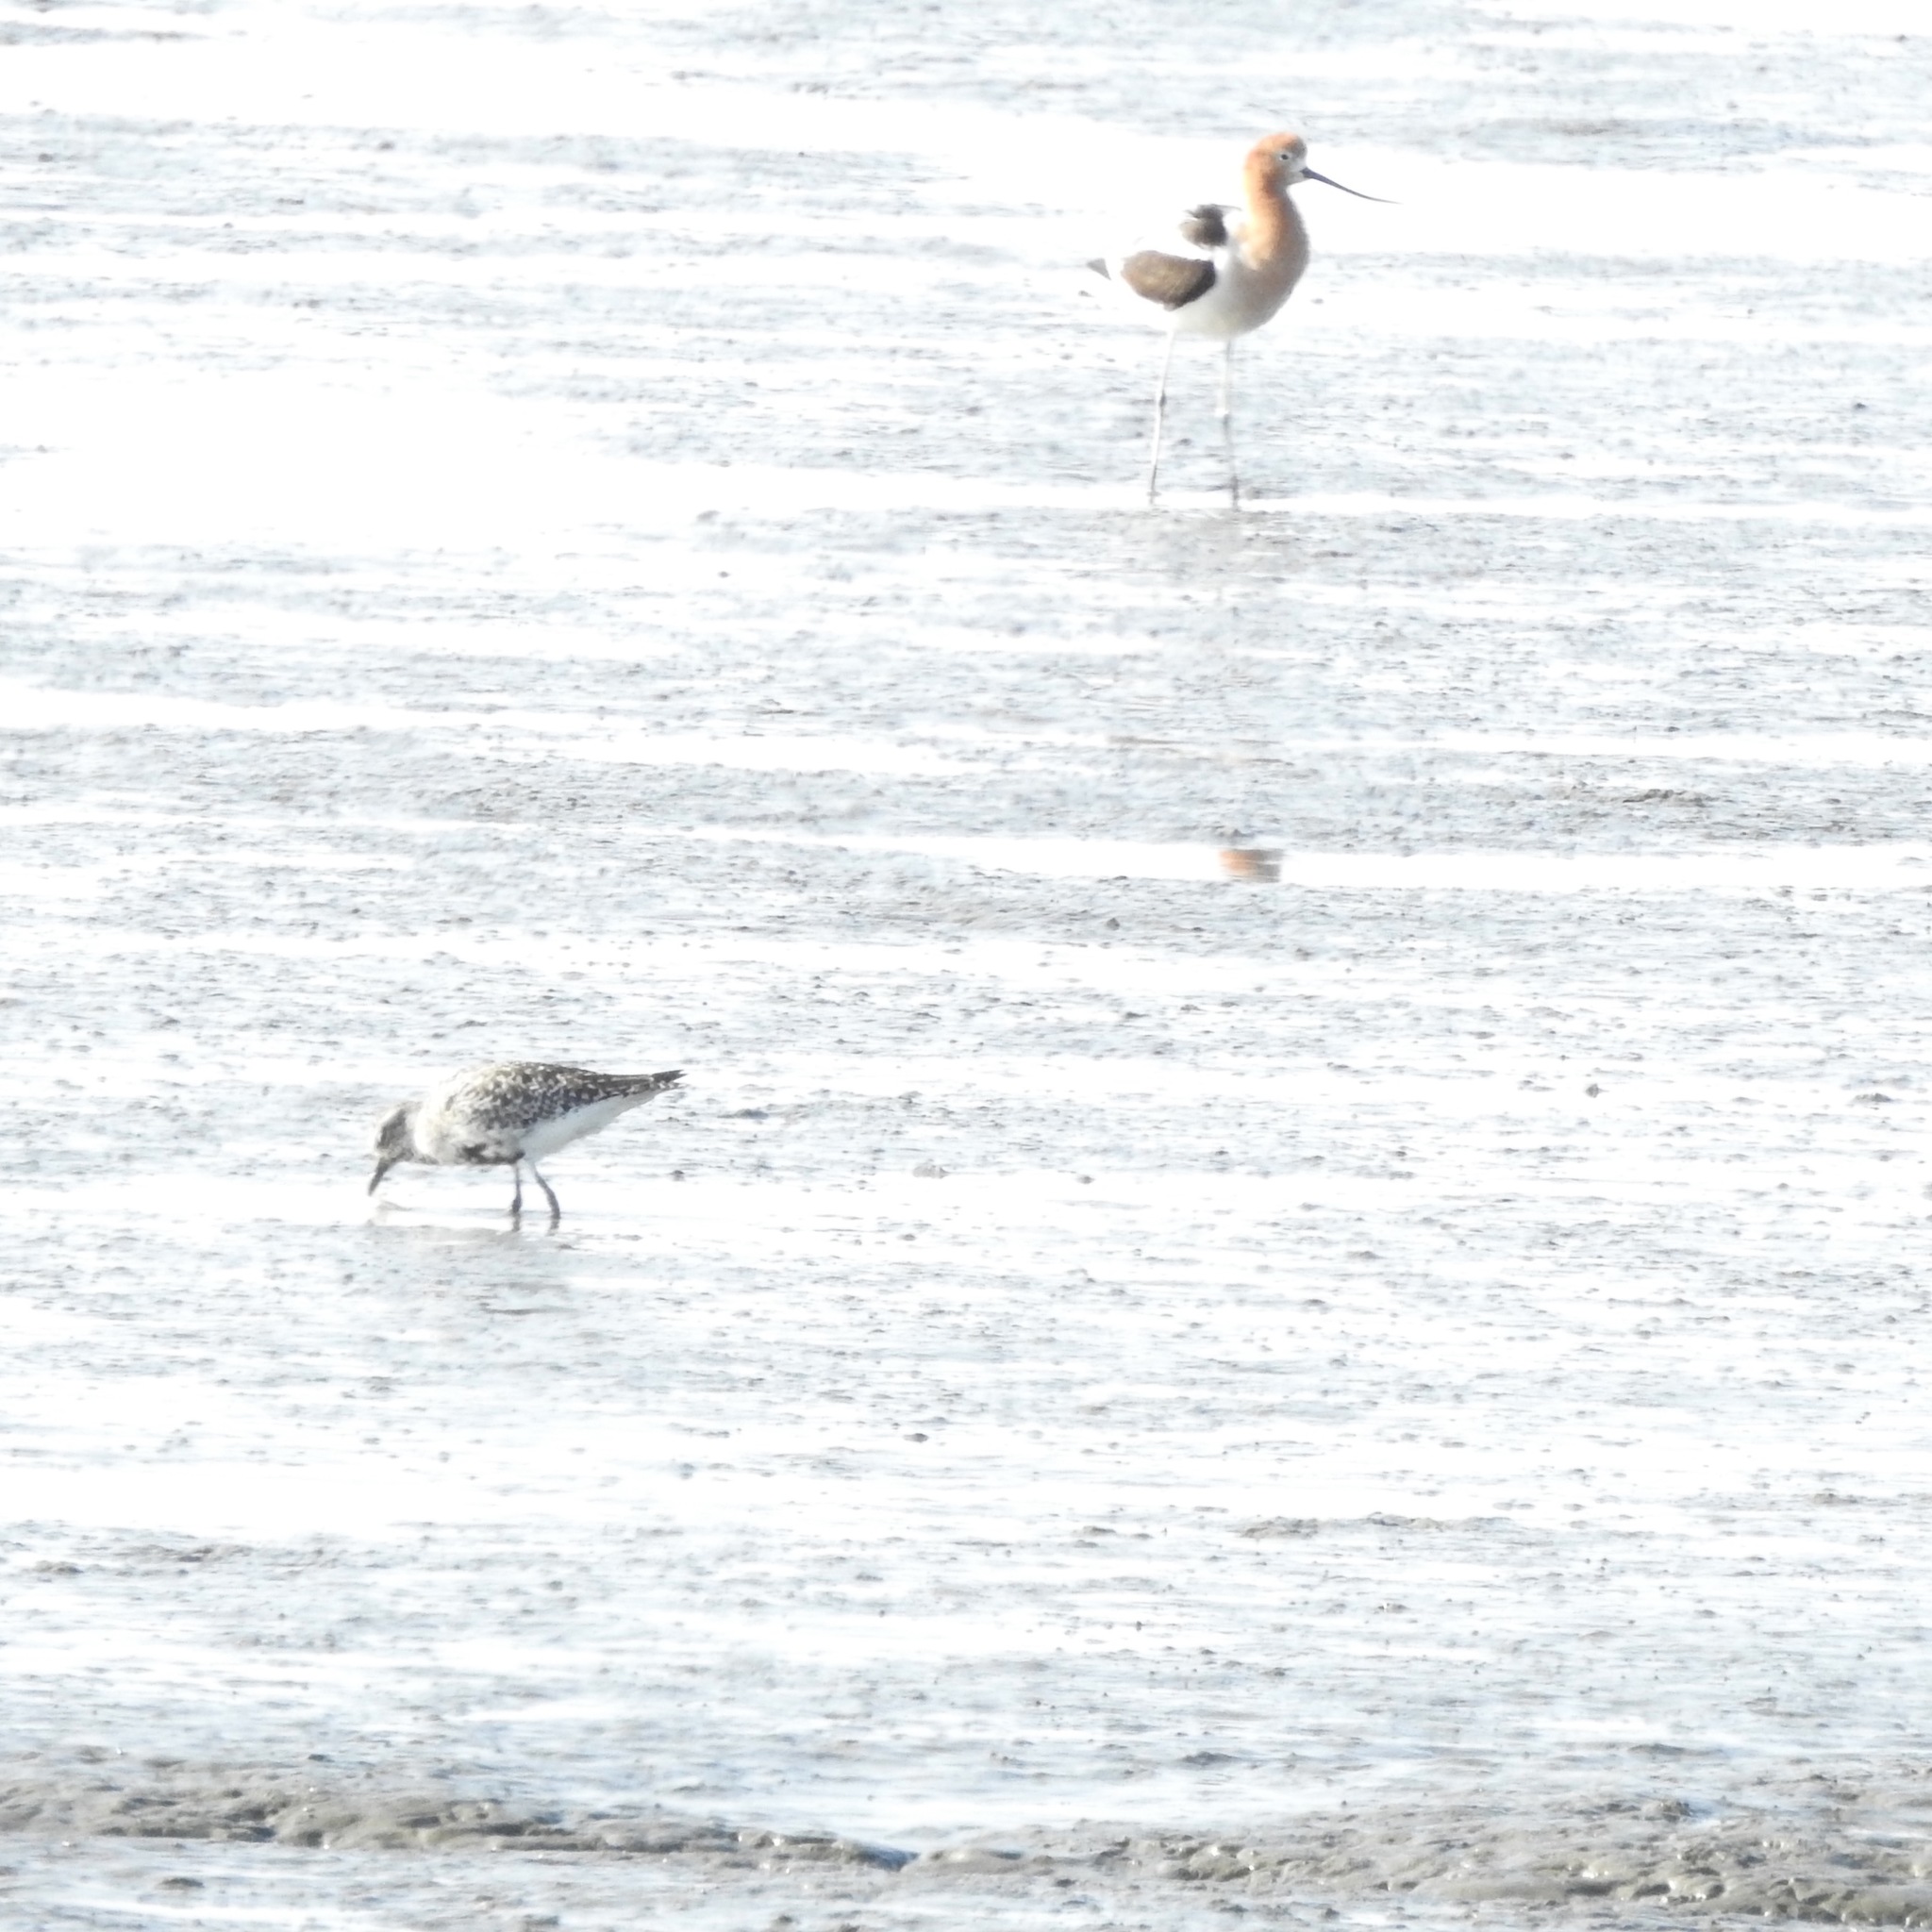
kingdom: Animalia
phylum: Chordata
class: Aves
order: Charadriiformes
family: Charadriidae
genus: Pluvialis
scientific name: Pluvialis squatarola
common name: Grey plover
